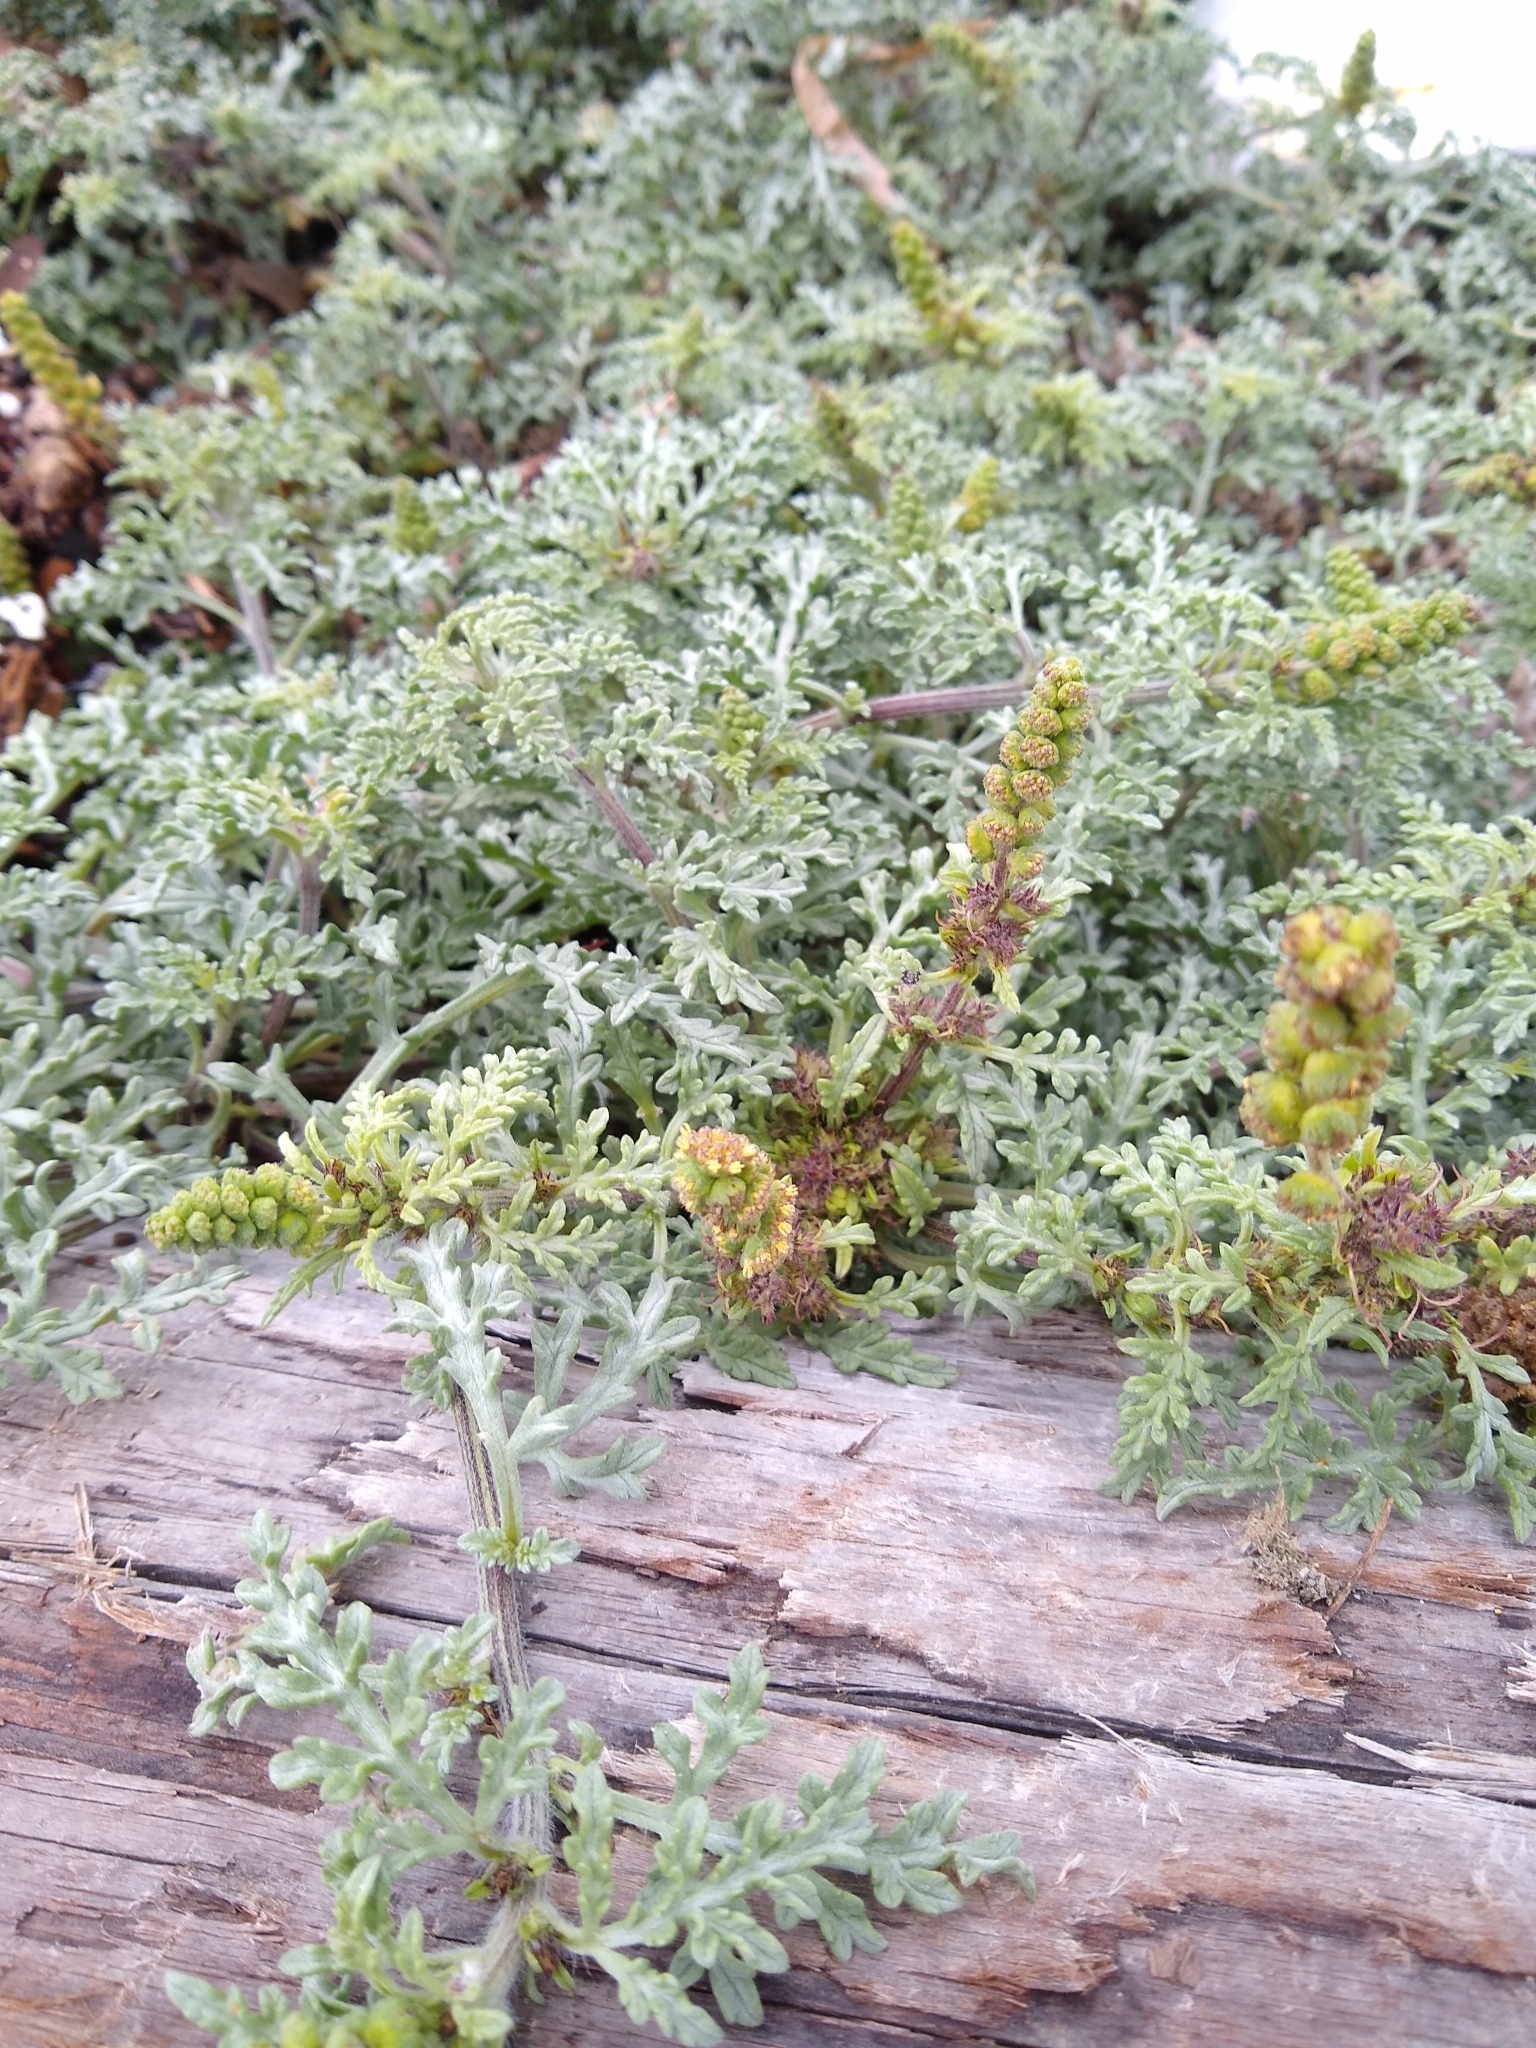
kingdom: Plantae
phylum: Tracheophyta
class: Magnoliopsida
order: Asterales
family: Asteraceae
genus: Ambrosia
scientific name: Ambrosia chamissonis
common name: Beachbur
